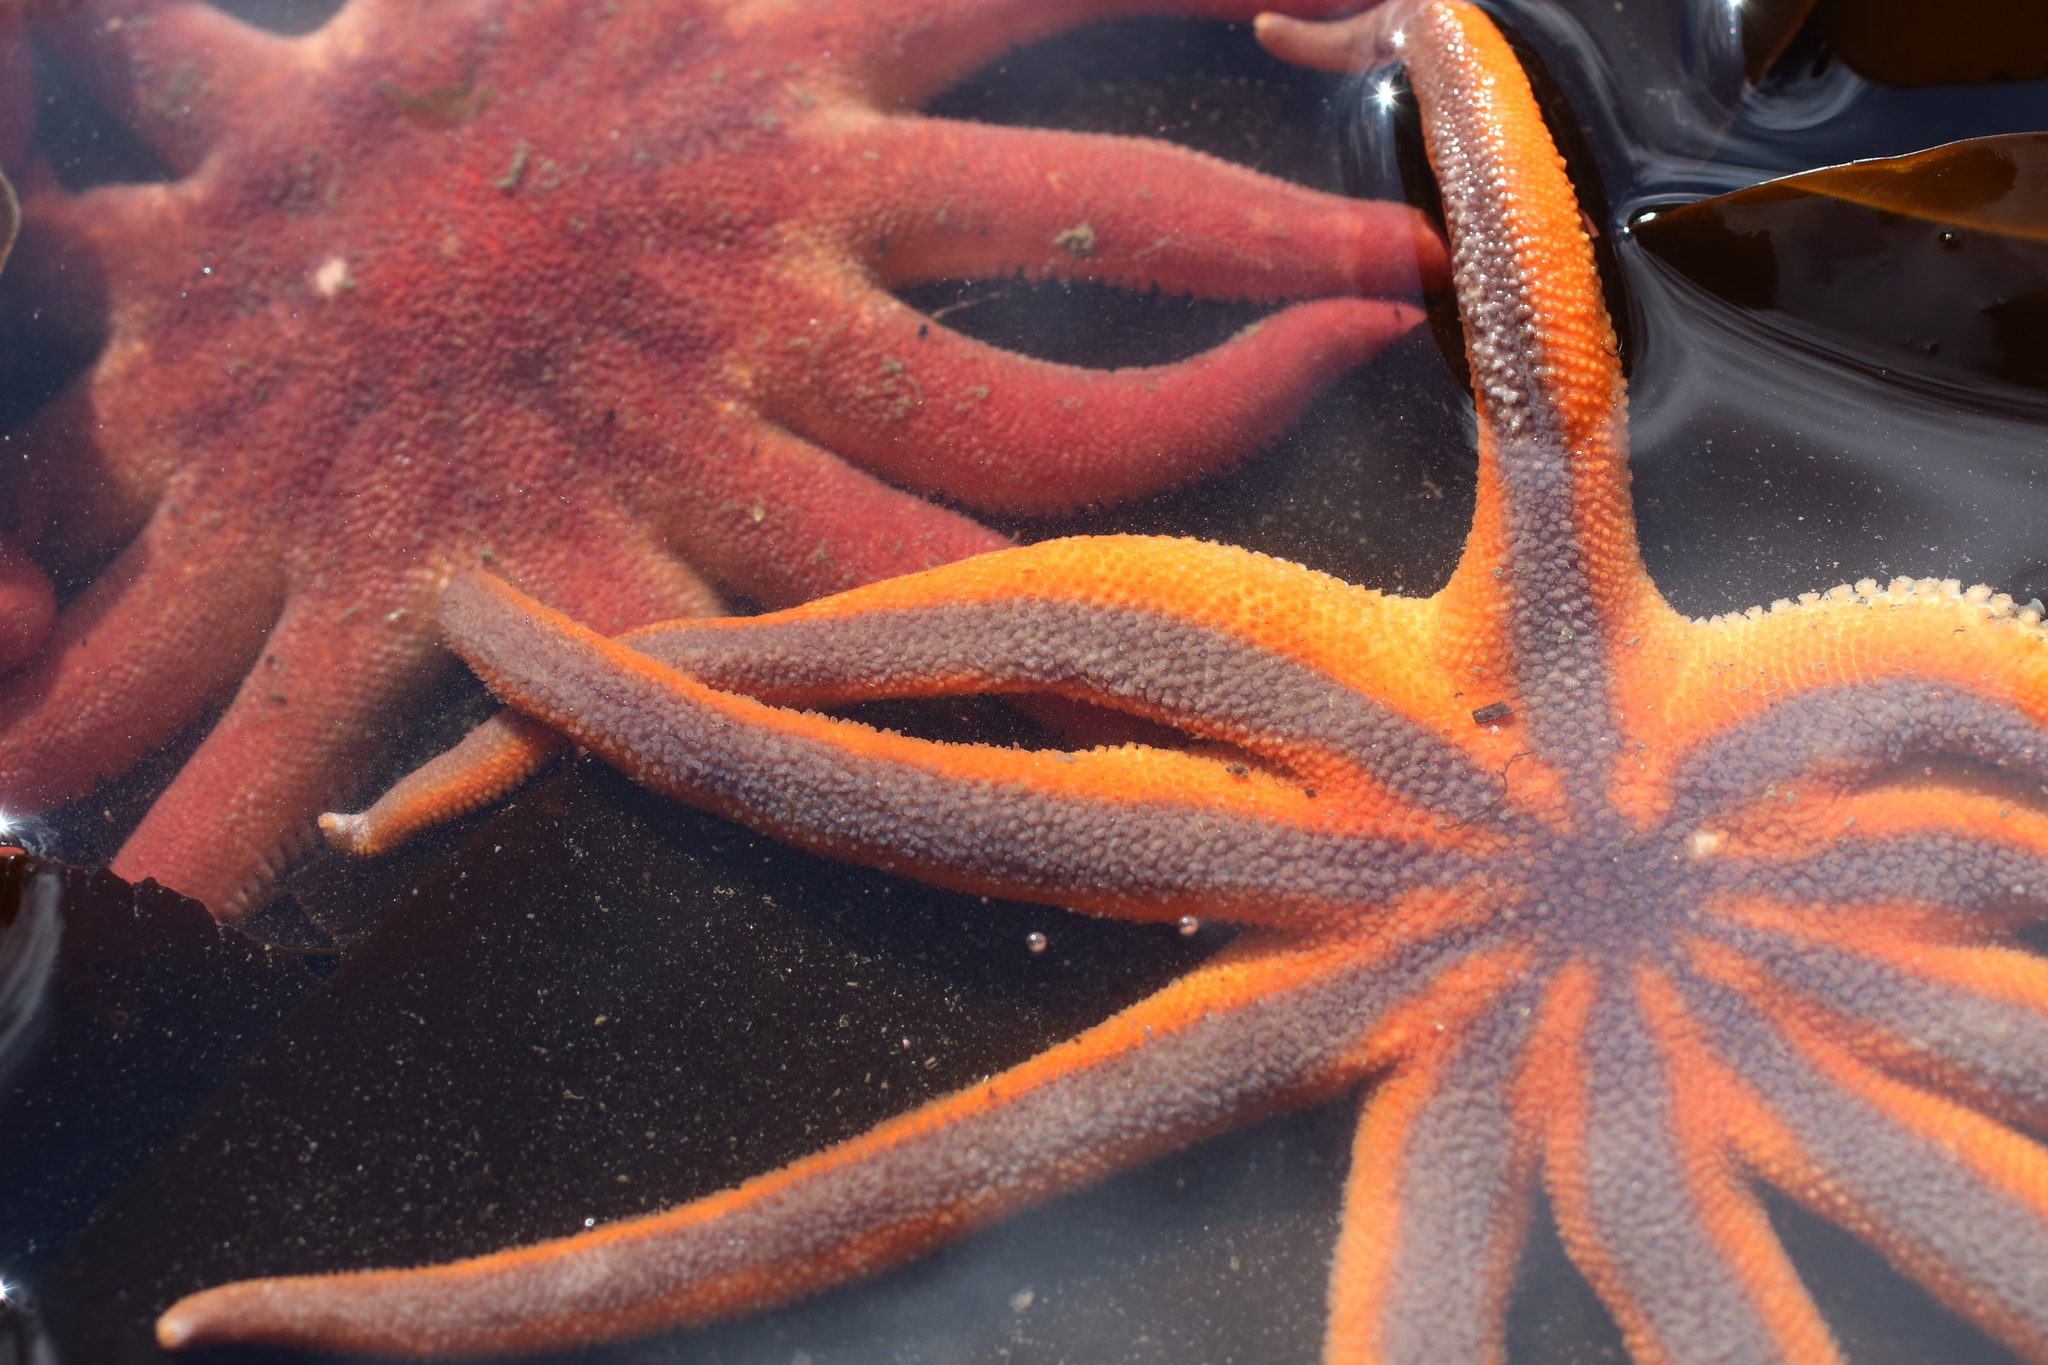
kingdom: Animalia
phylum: Echinodermata
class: Asteroidea
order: Valvatida
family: Solasteridae
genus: Solaster
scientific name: Solaster stimpsoni
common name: Orange sun star
